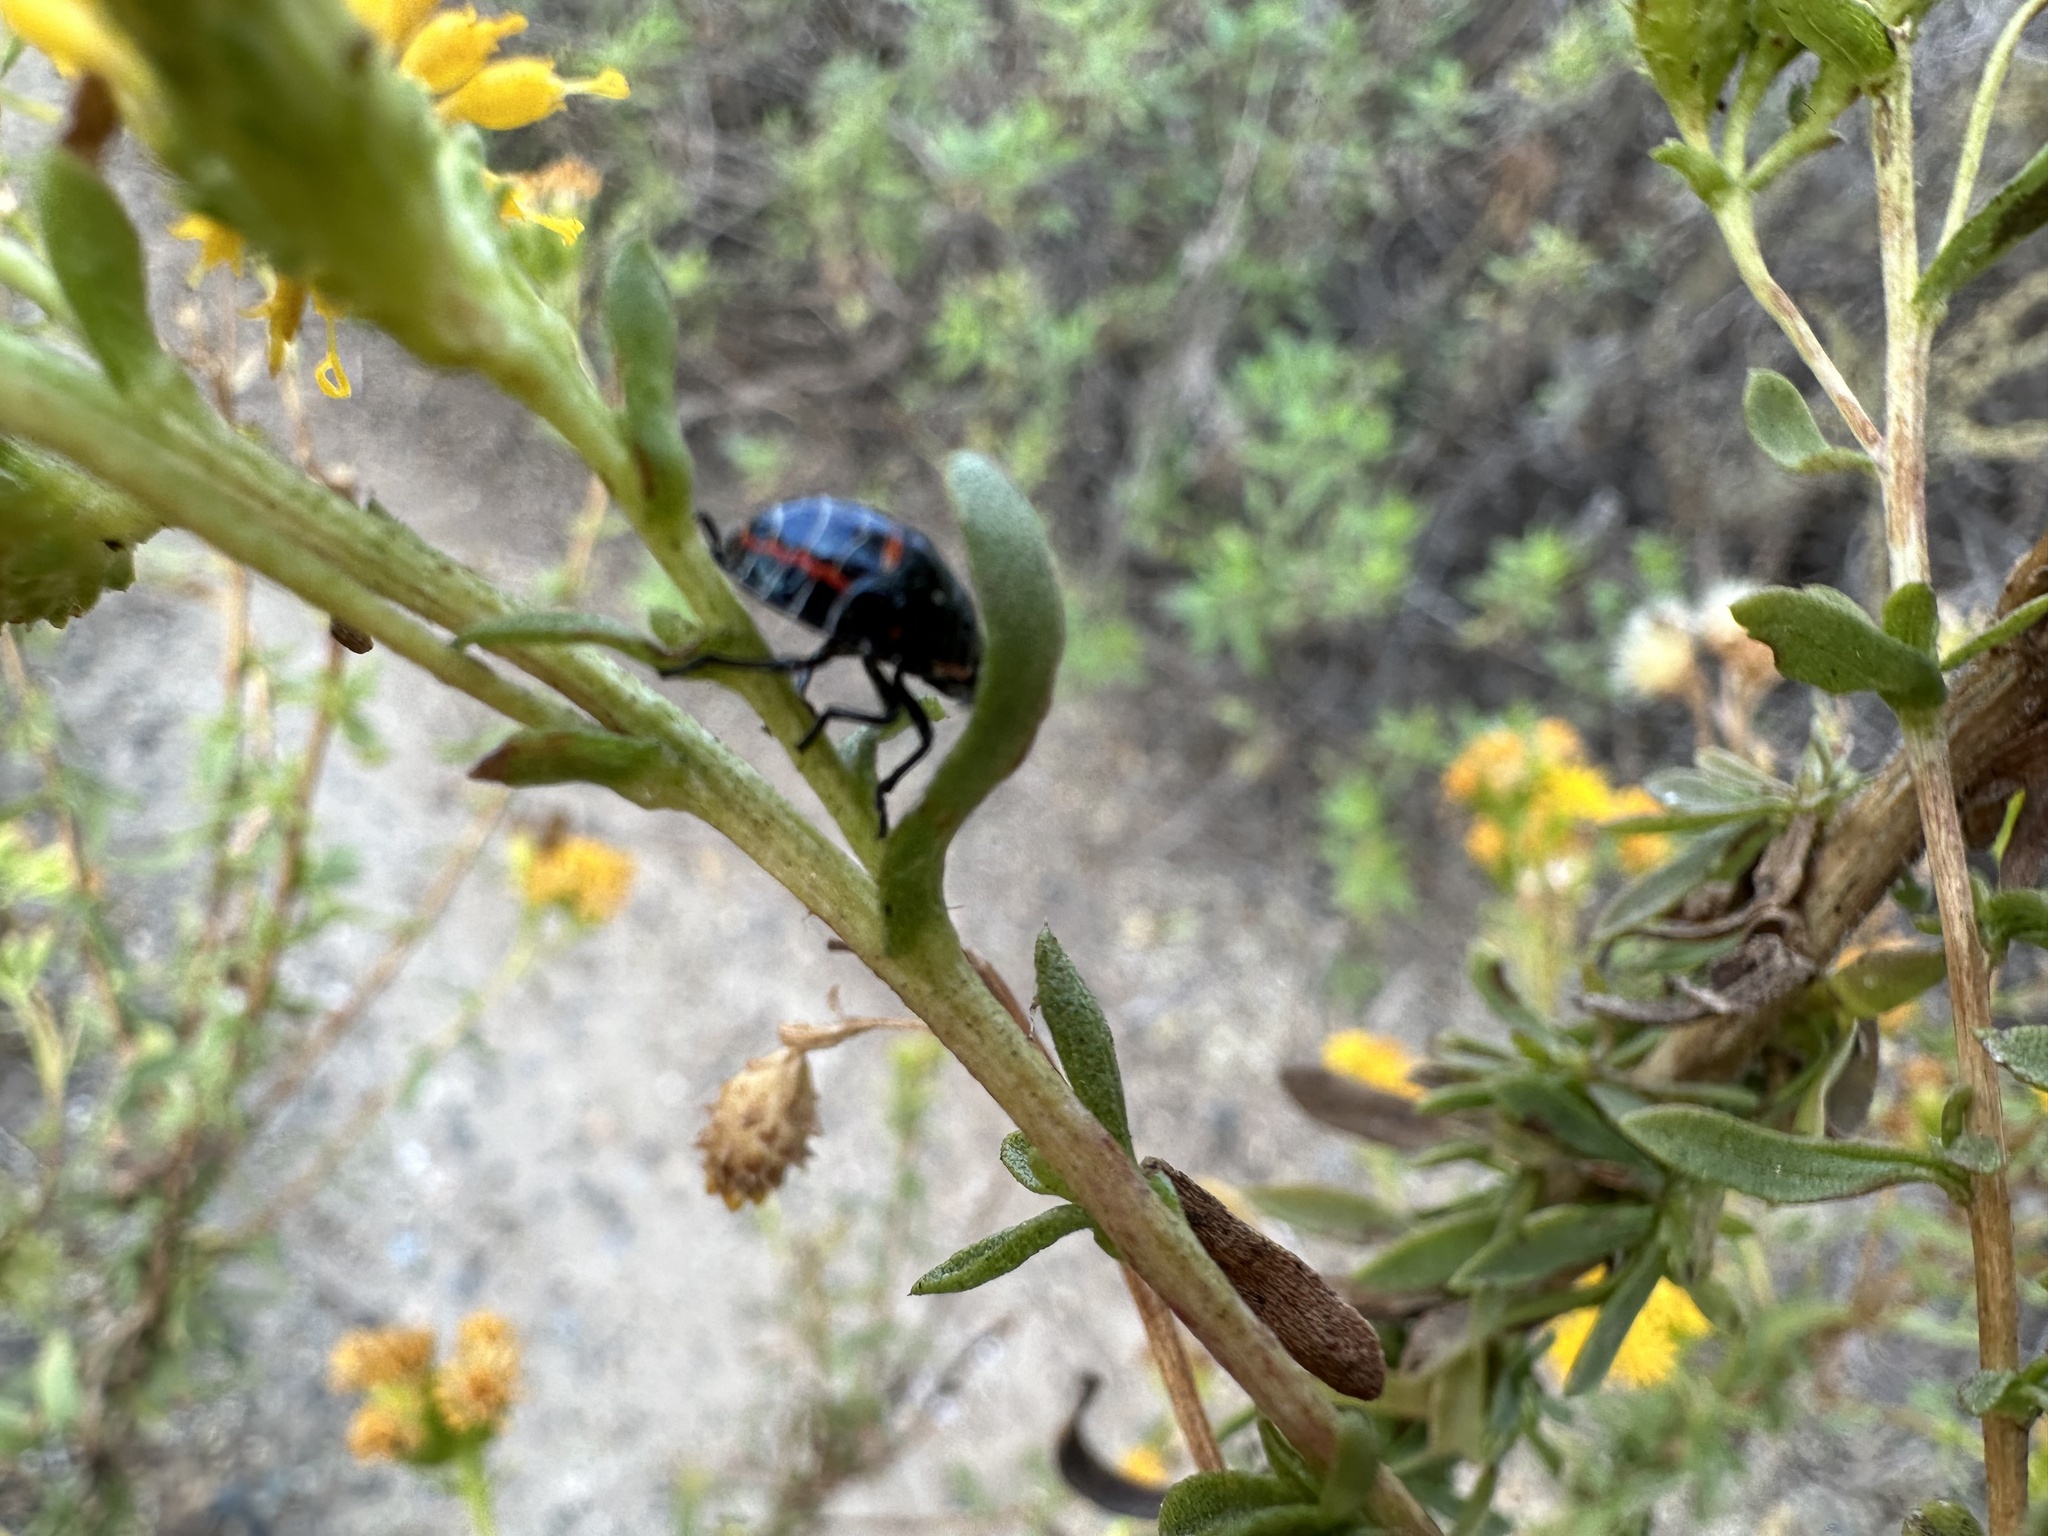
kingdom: Animalia
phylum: Arthropoda
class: Insecta
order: Hemiptera
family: Pentatomidae
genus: Murgantia
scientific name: Murgantia histrionica
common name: Harlequin bug
